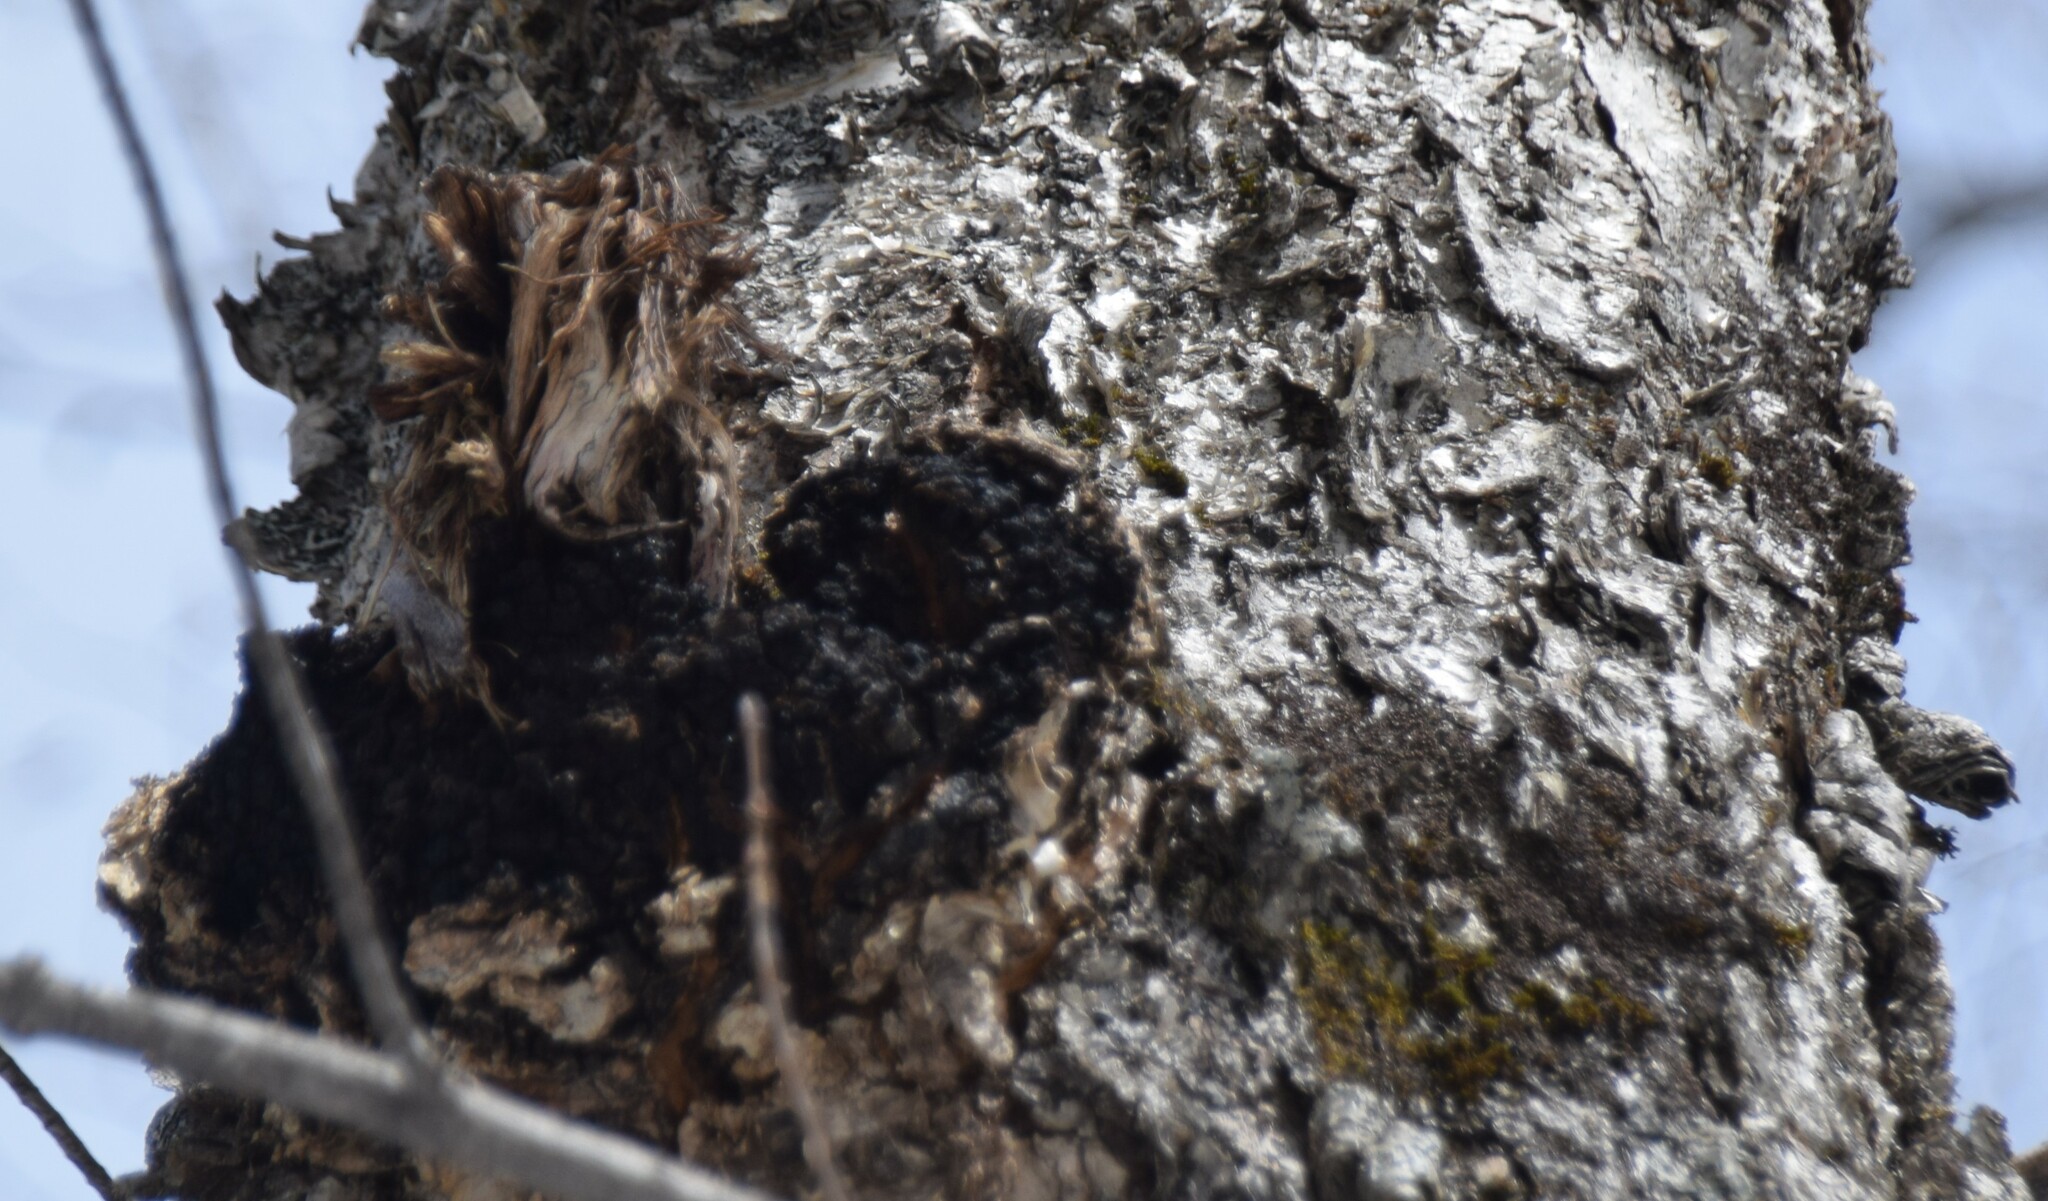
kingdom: Fungi
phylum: Basidiomycota
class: Agaricomycetes
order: Hymenochaetales
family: Hymenochaetaceae
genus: Inonotus
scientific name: Inonotus obliquus
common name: Chaga
